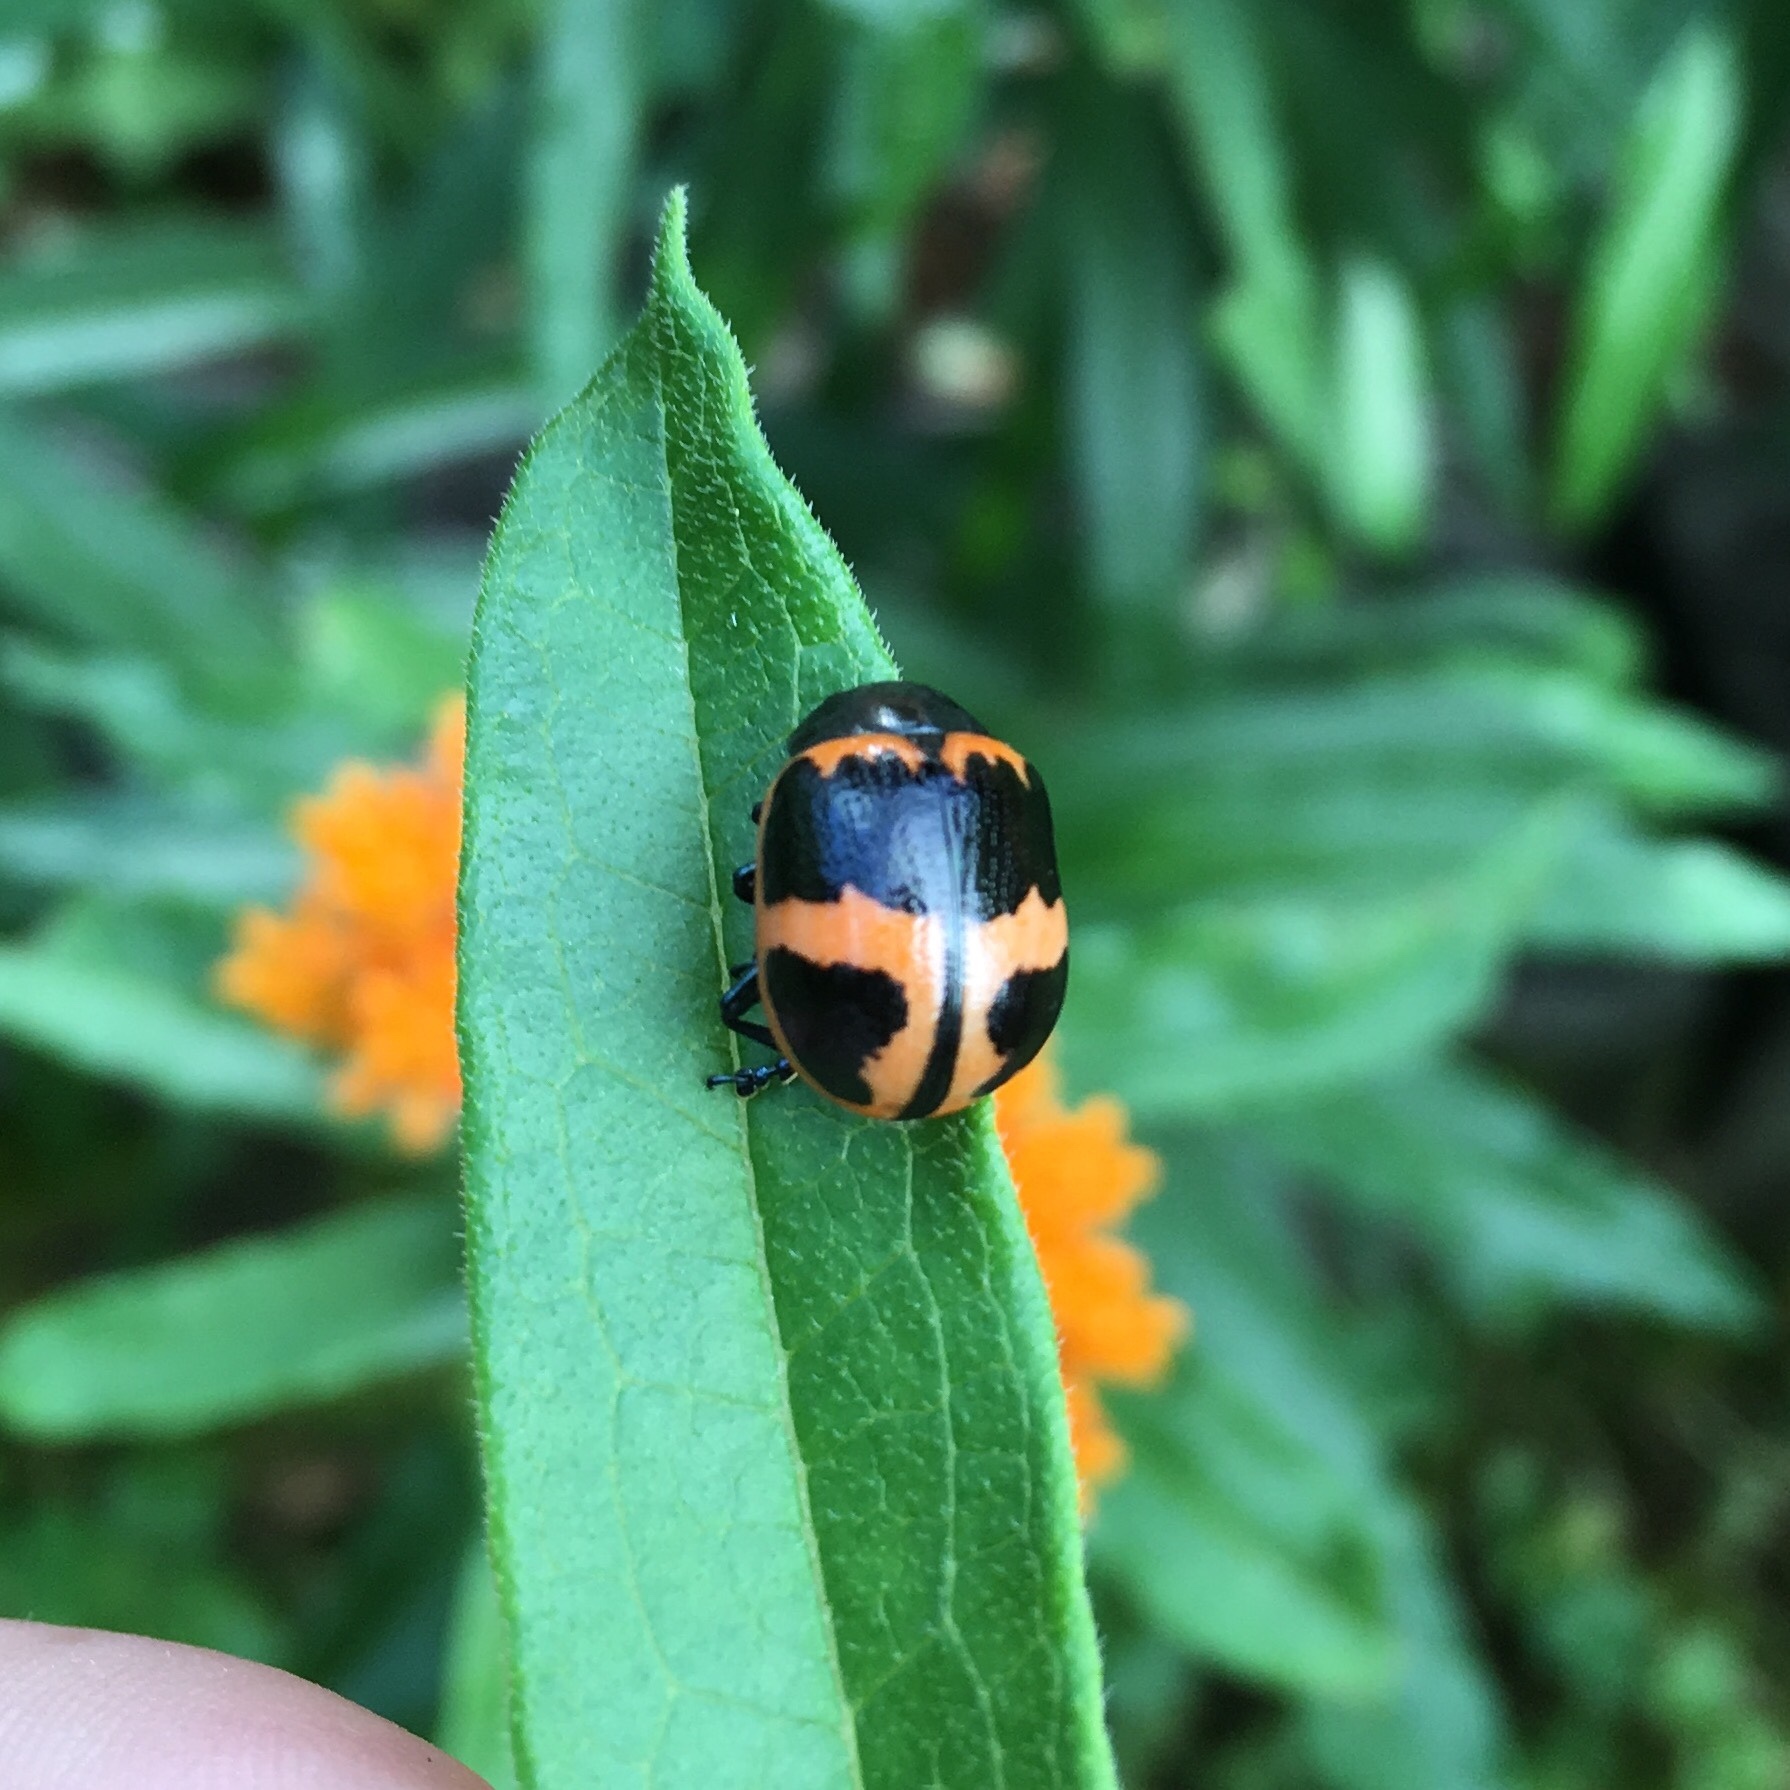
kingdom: Animalia
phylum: Arthropoda
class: Insecta
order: Coleoptera
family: Chrysomelidae
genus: Labidomera
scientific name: Labidomera clivicollis
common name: Swamp milkweed leaf beetle
